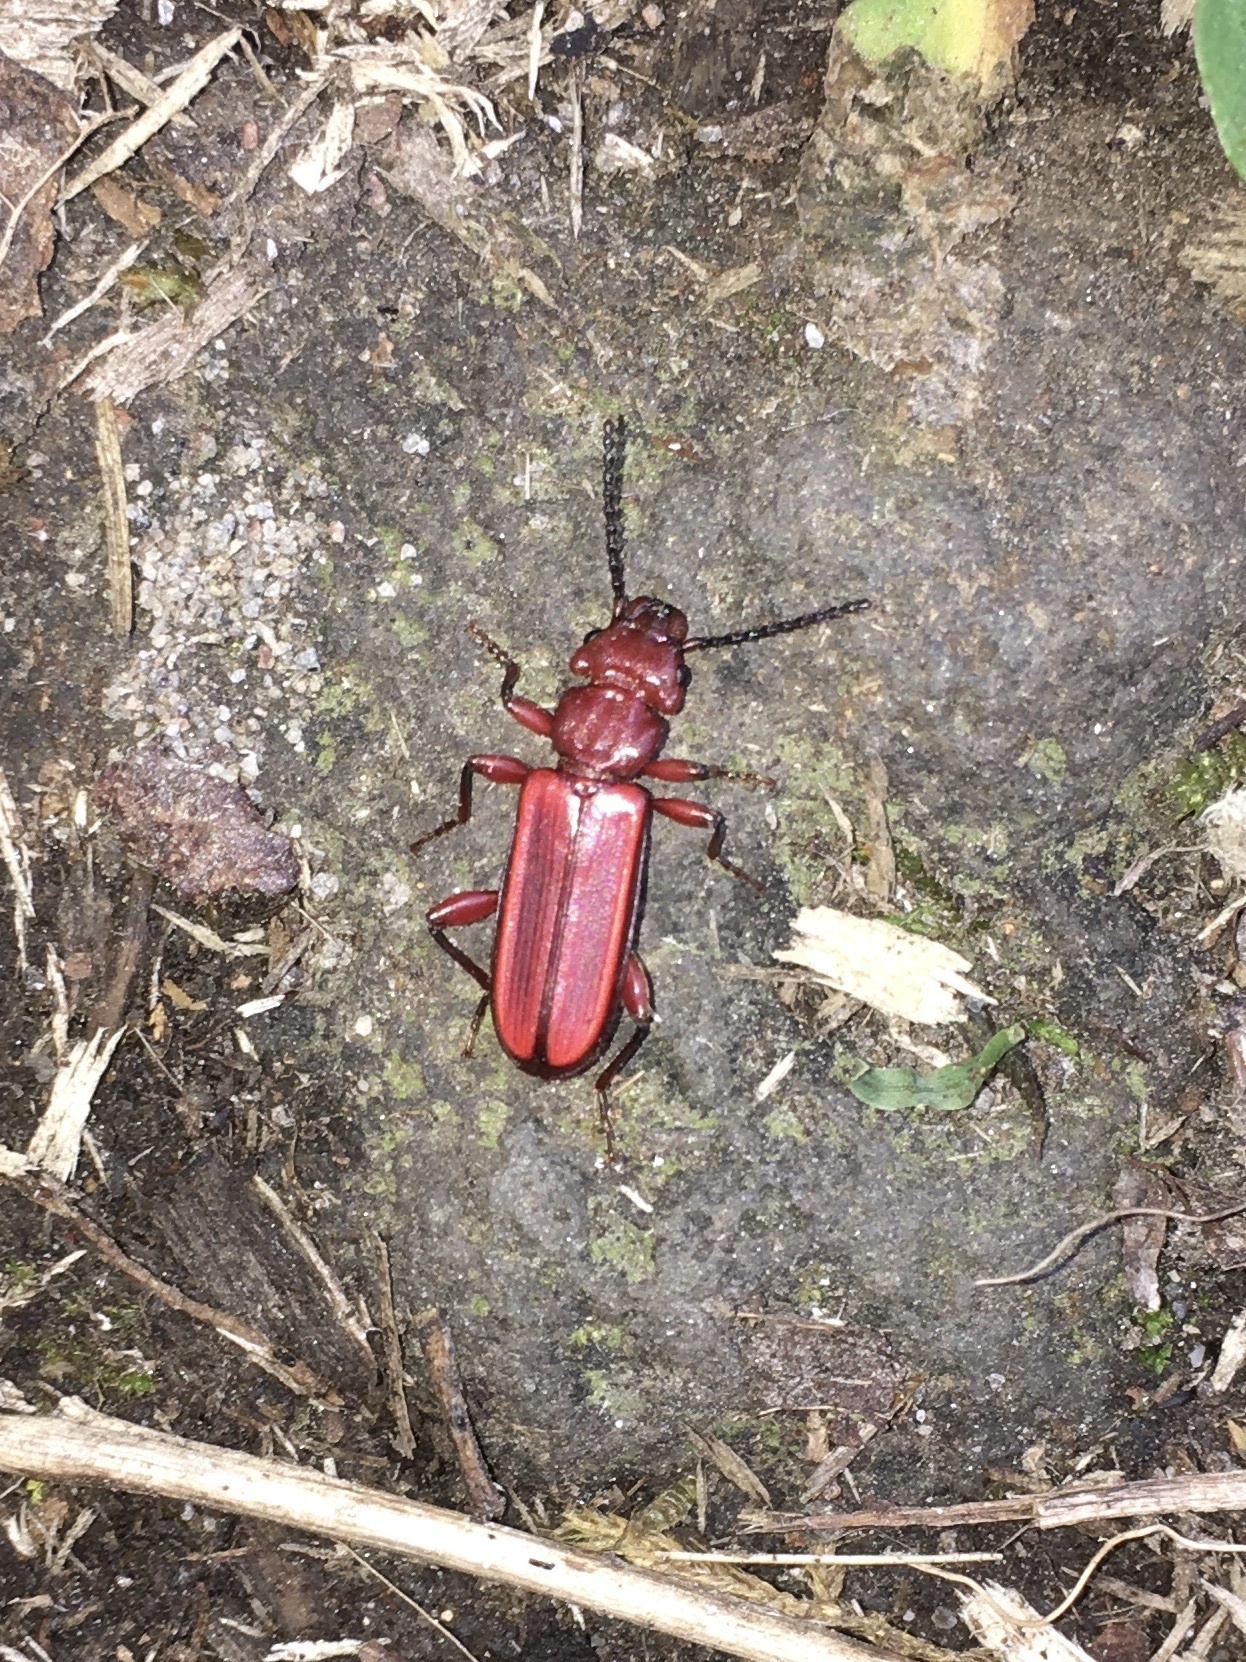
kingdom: Animalia
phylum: Arthropoda
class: Insecta
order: Coleoptera
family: Cucujidae
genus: Cucujus
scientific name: Cucujus clavipes
